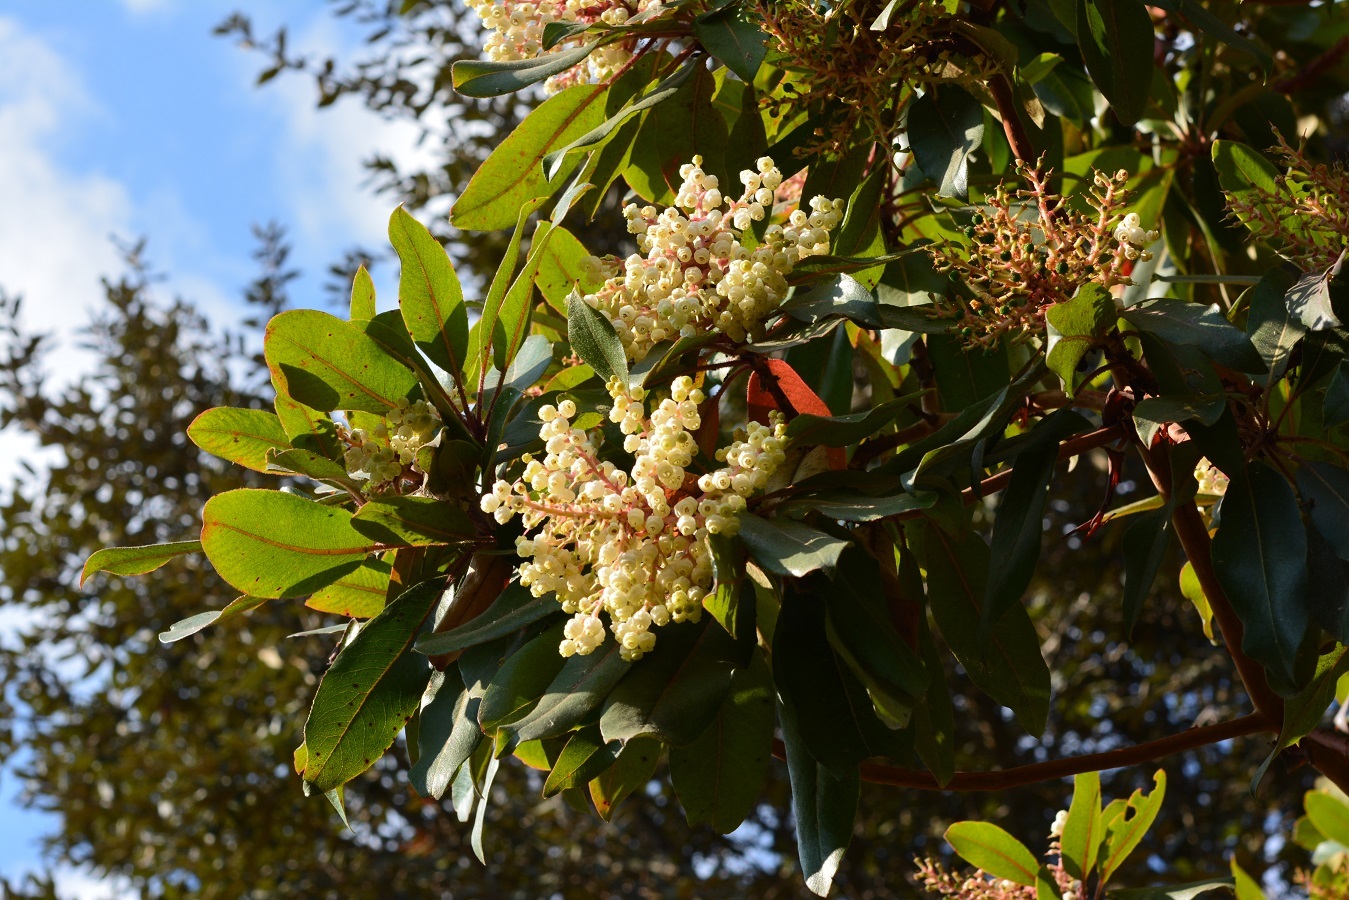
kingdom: Plantae
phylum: Tracheophyta
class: Magnoliopsida
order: Ericales
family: Ericaceae
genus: Arbutus
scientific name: Arbutus xalapensis
